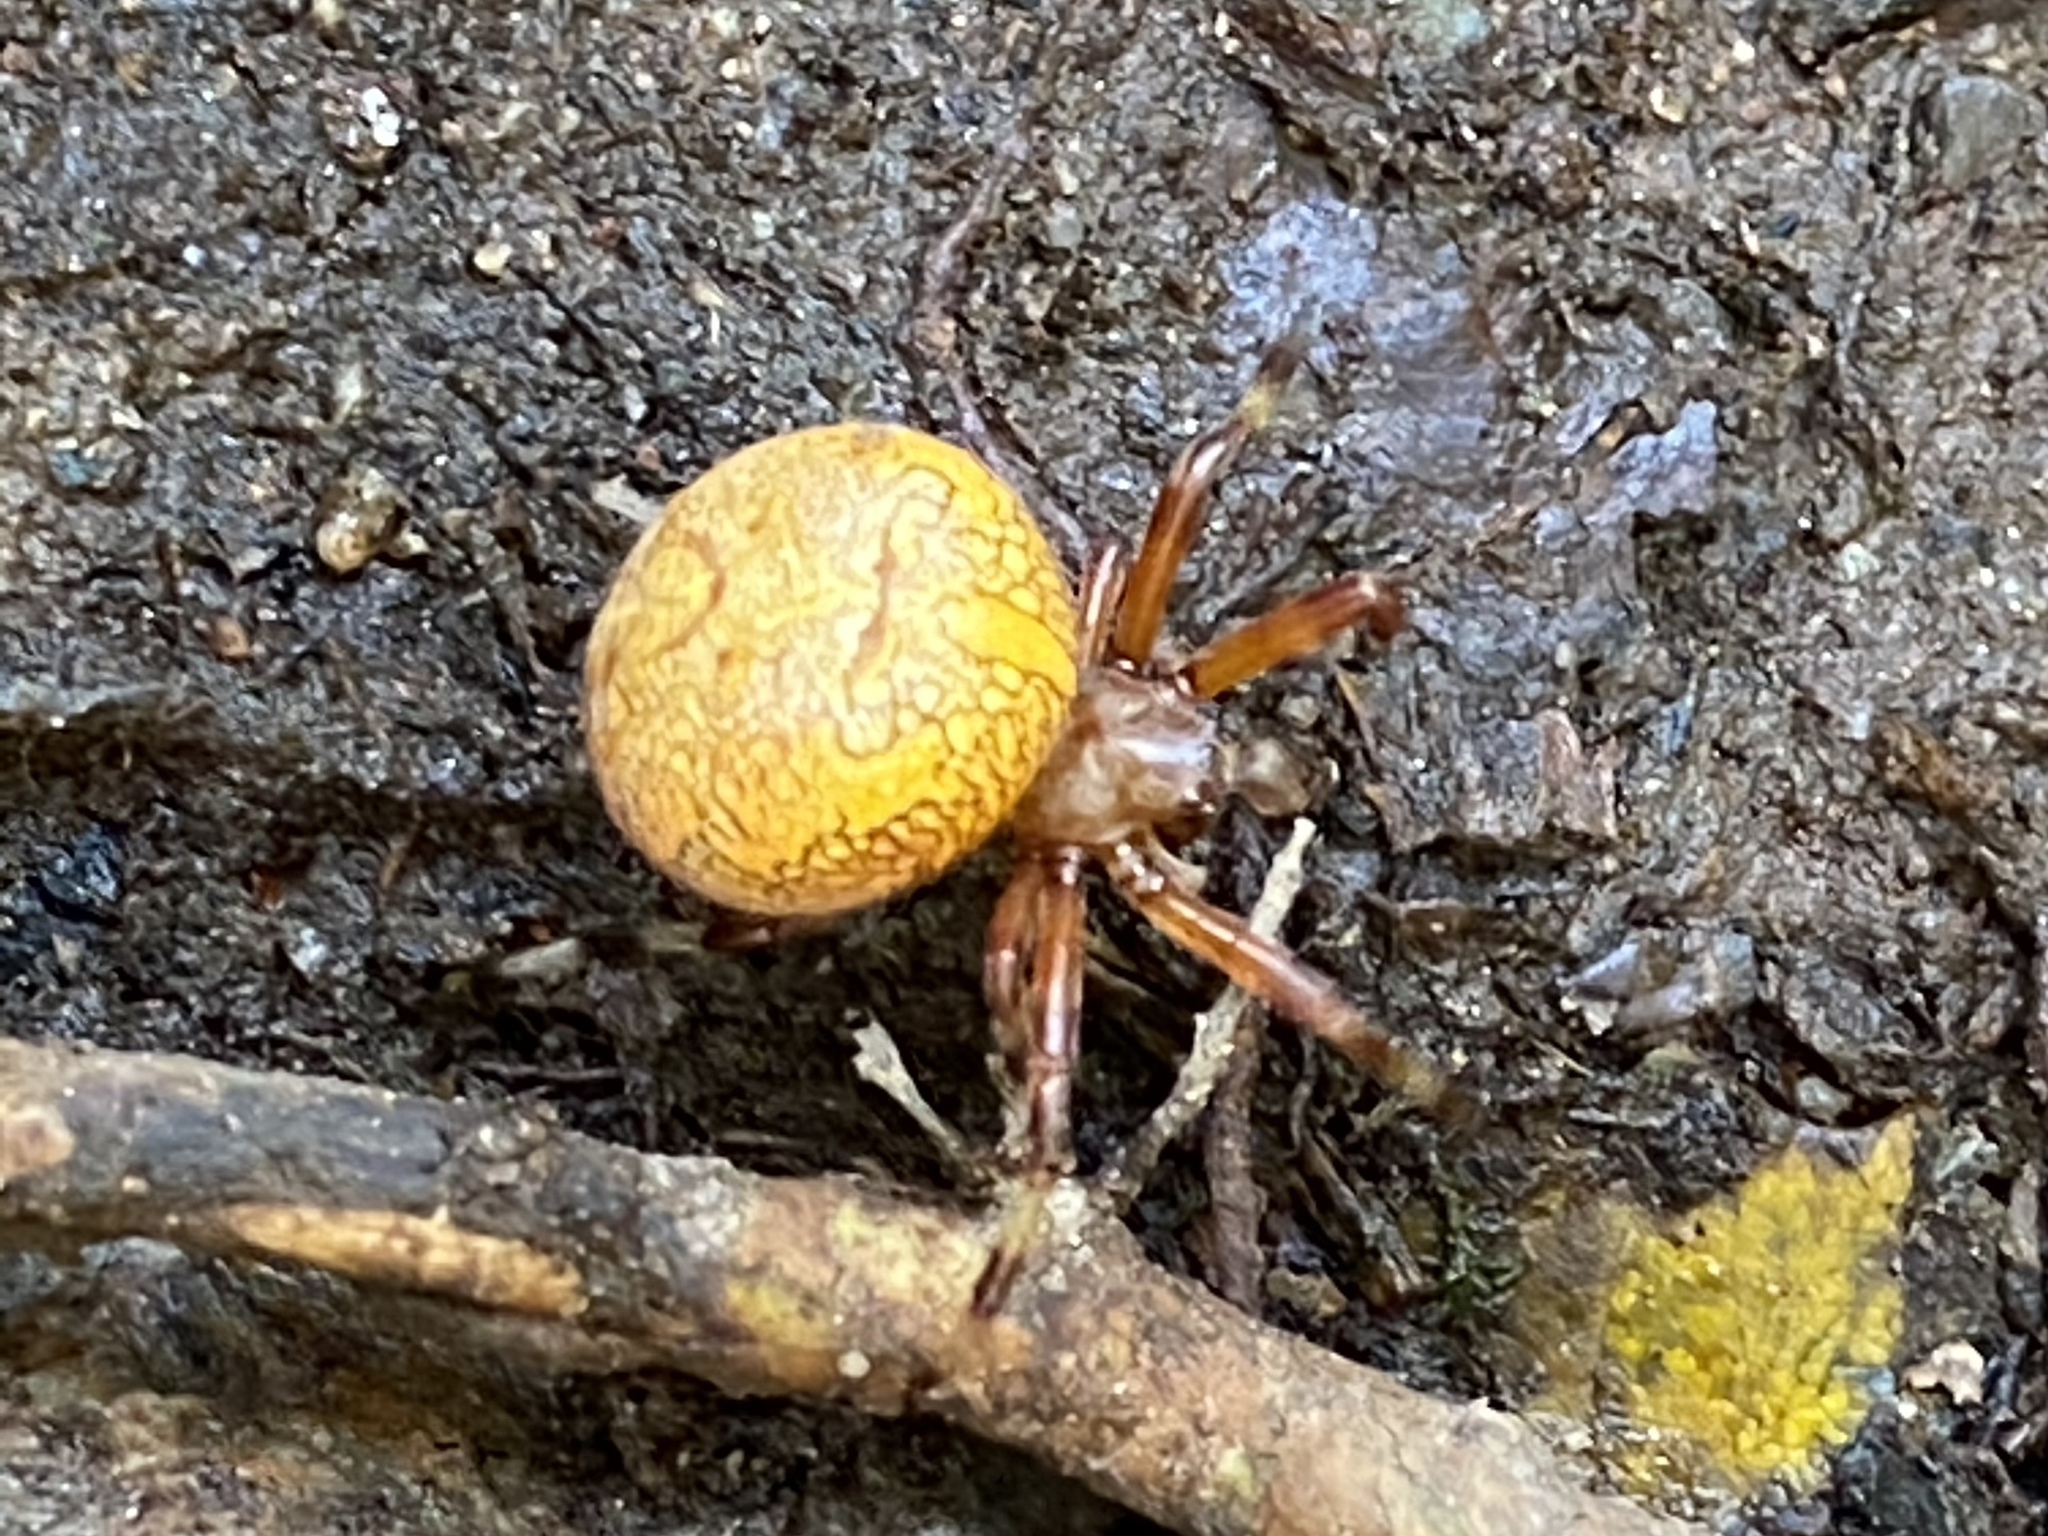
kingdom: Animalia
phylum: Arthropoda
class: Arachnida
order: Araneae
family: Araneidae
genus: Araneus
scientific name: Araneus marmoreus
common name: Marbled orbweaver
